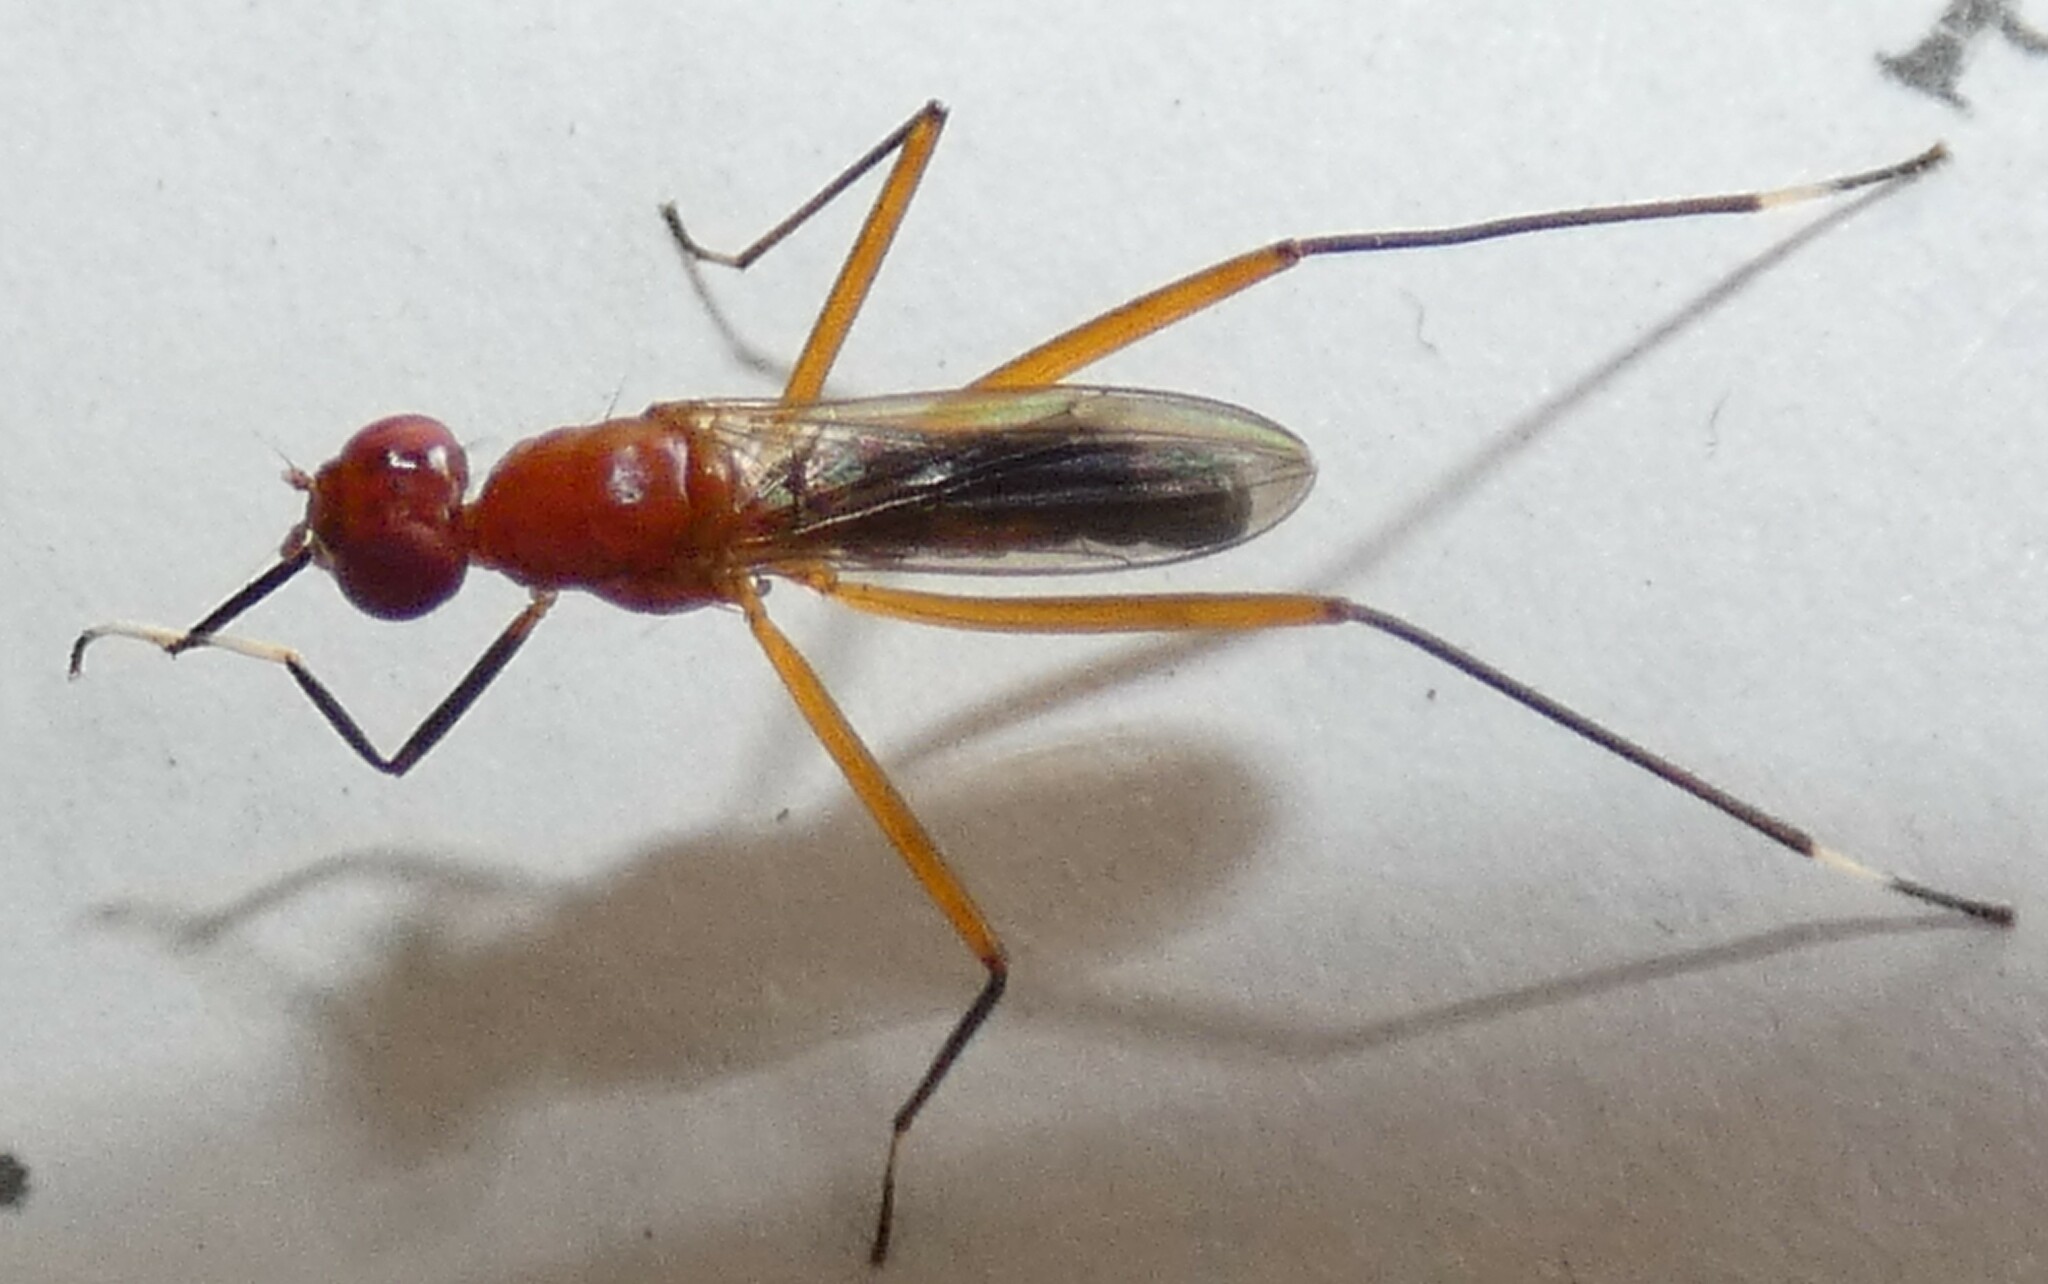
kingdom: Animalia
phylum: Arthropoda
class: Insecta
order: Diptera
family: Micropezidae
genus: Grallipeza
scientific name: Grallipeza nebulosa
